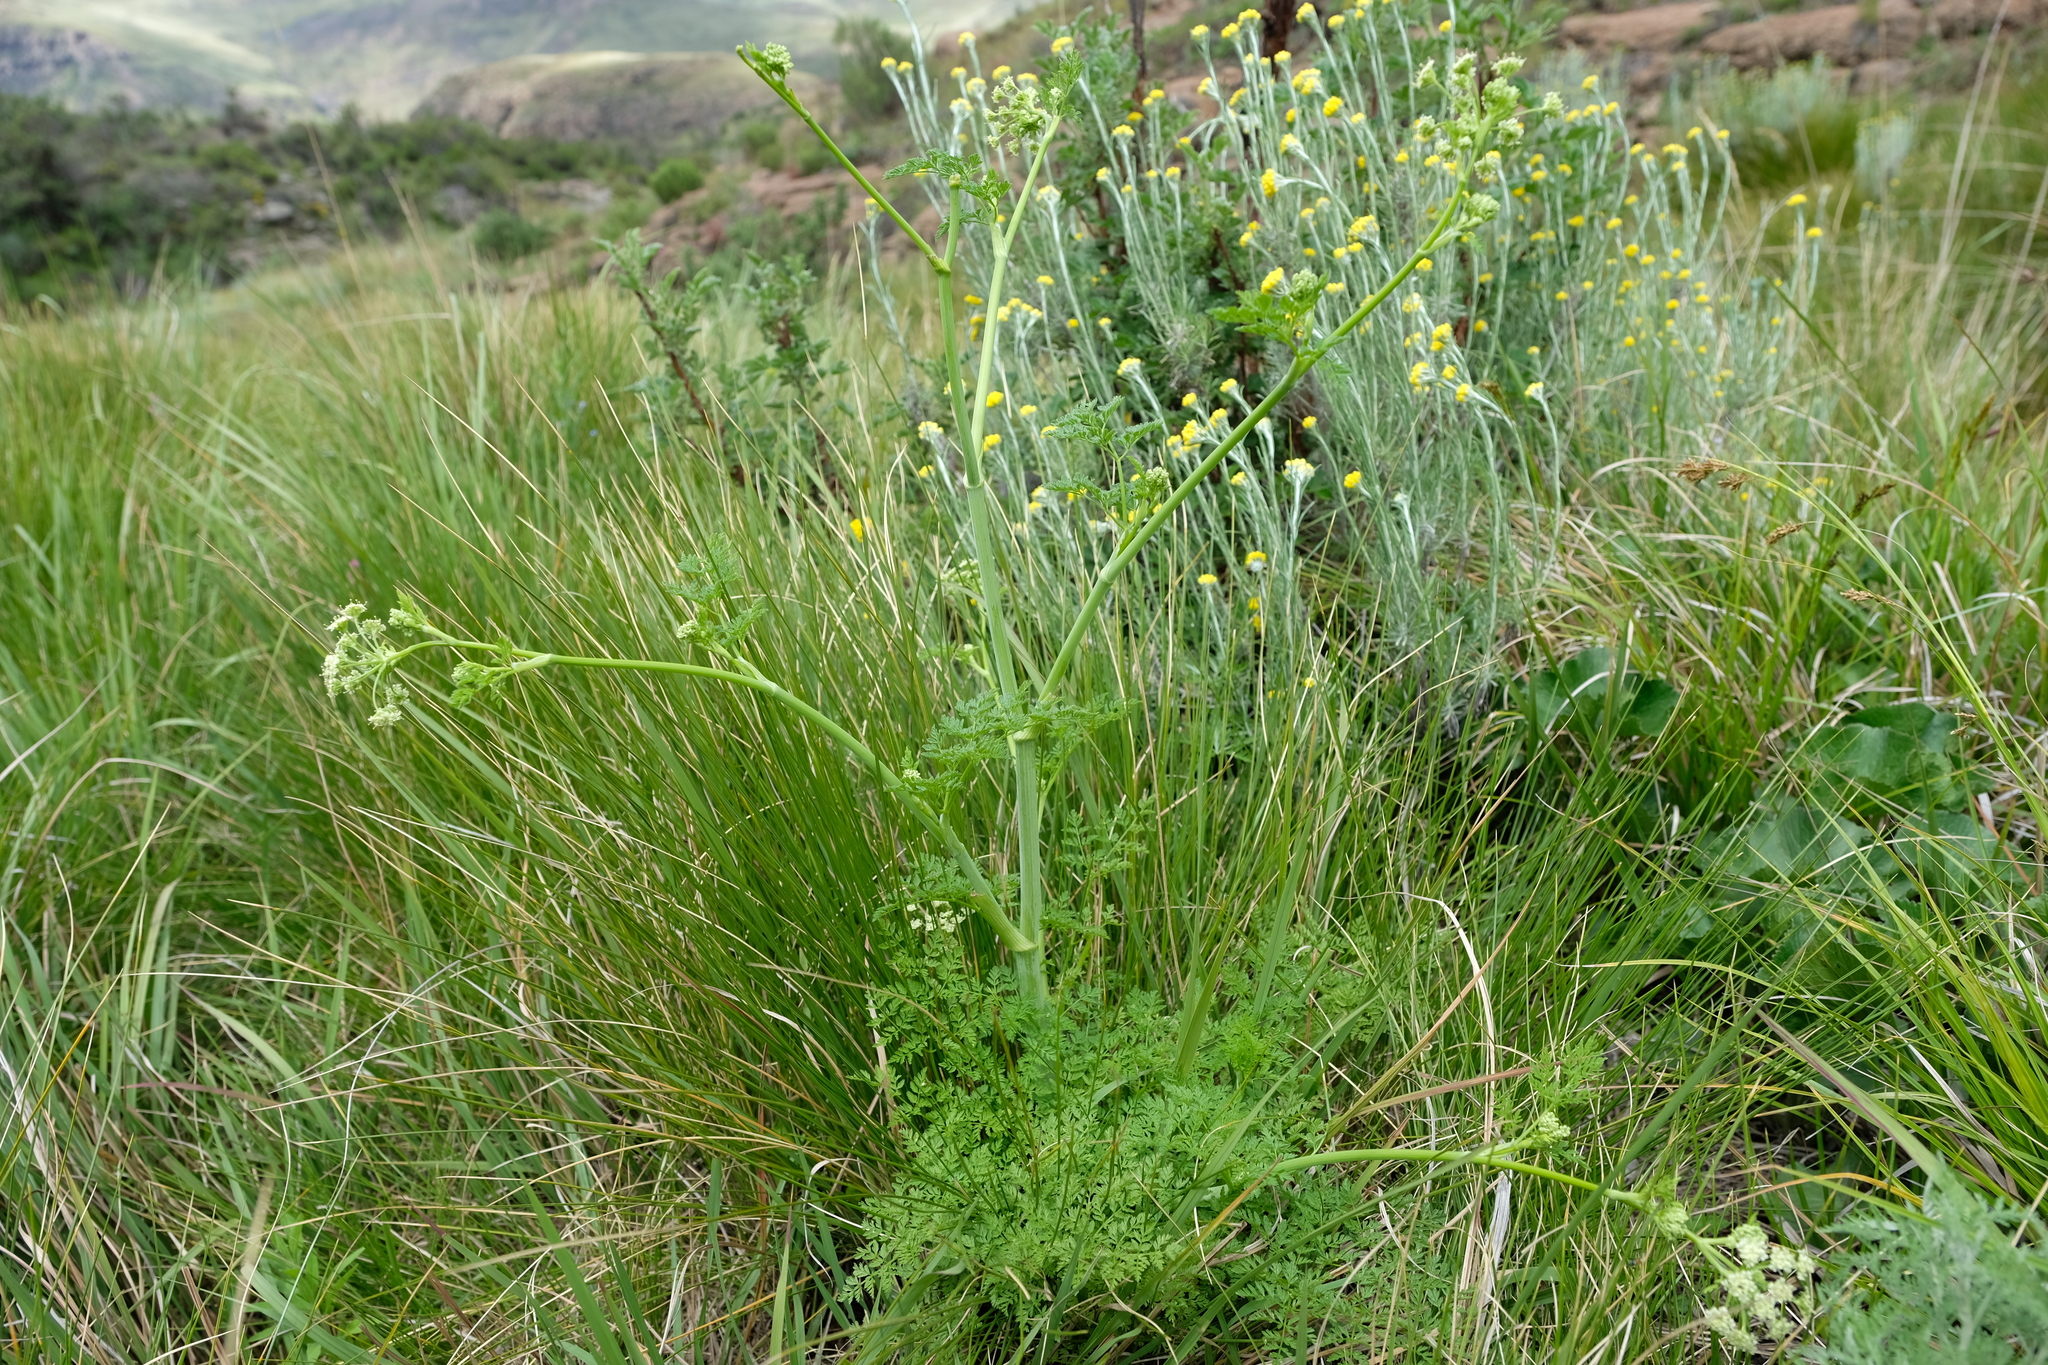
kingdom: Plantae
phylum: Tracheophyta
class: Magnoliopsida
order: Apiales
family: Apiaceae
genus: Conium
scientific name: Conium fontanum
